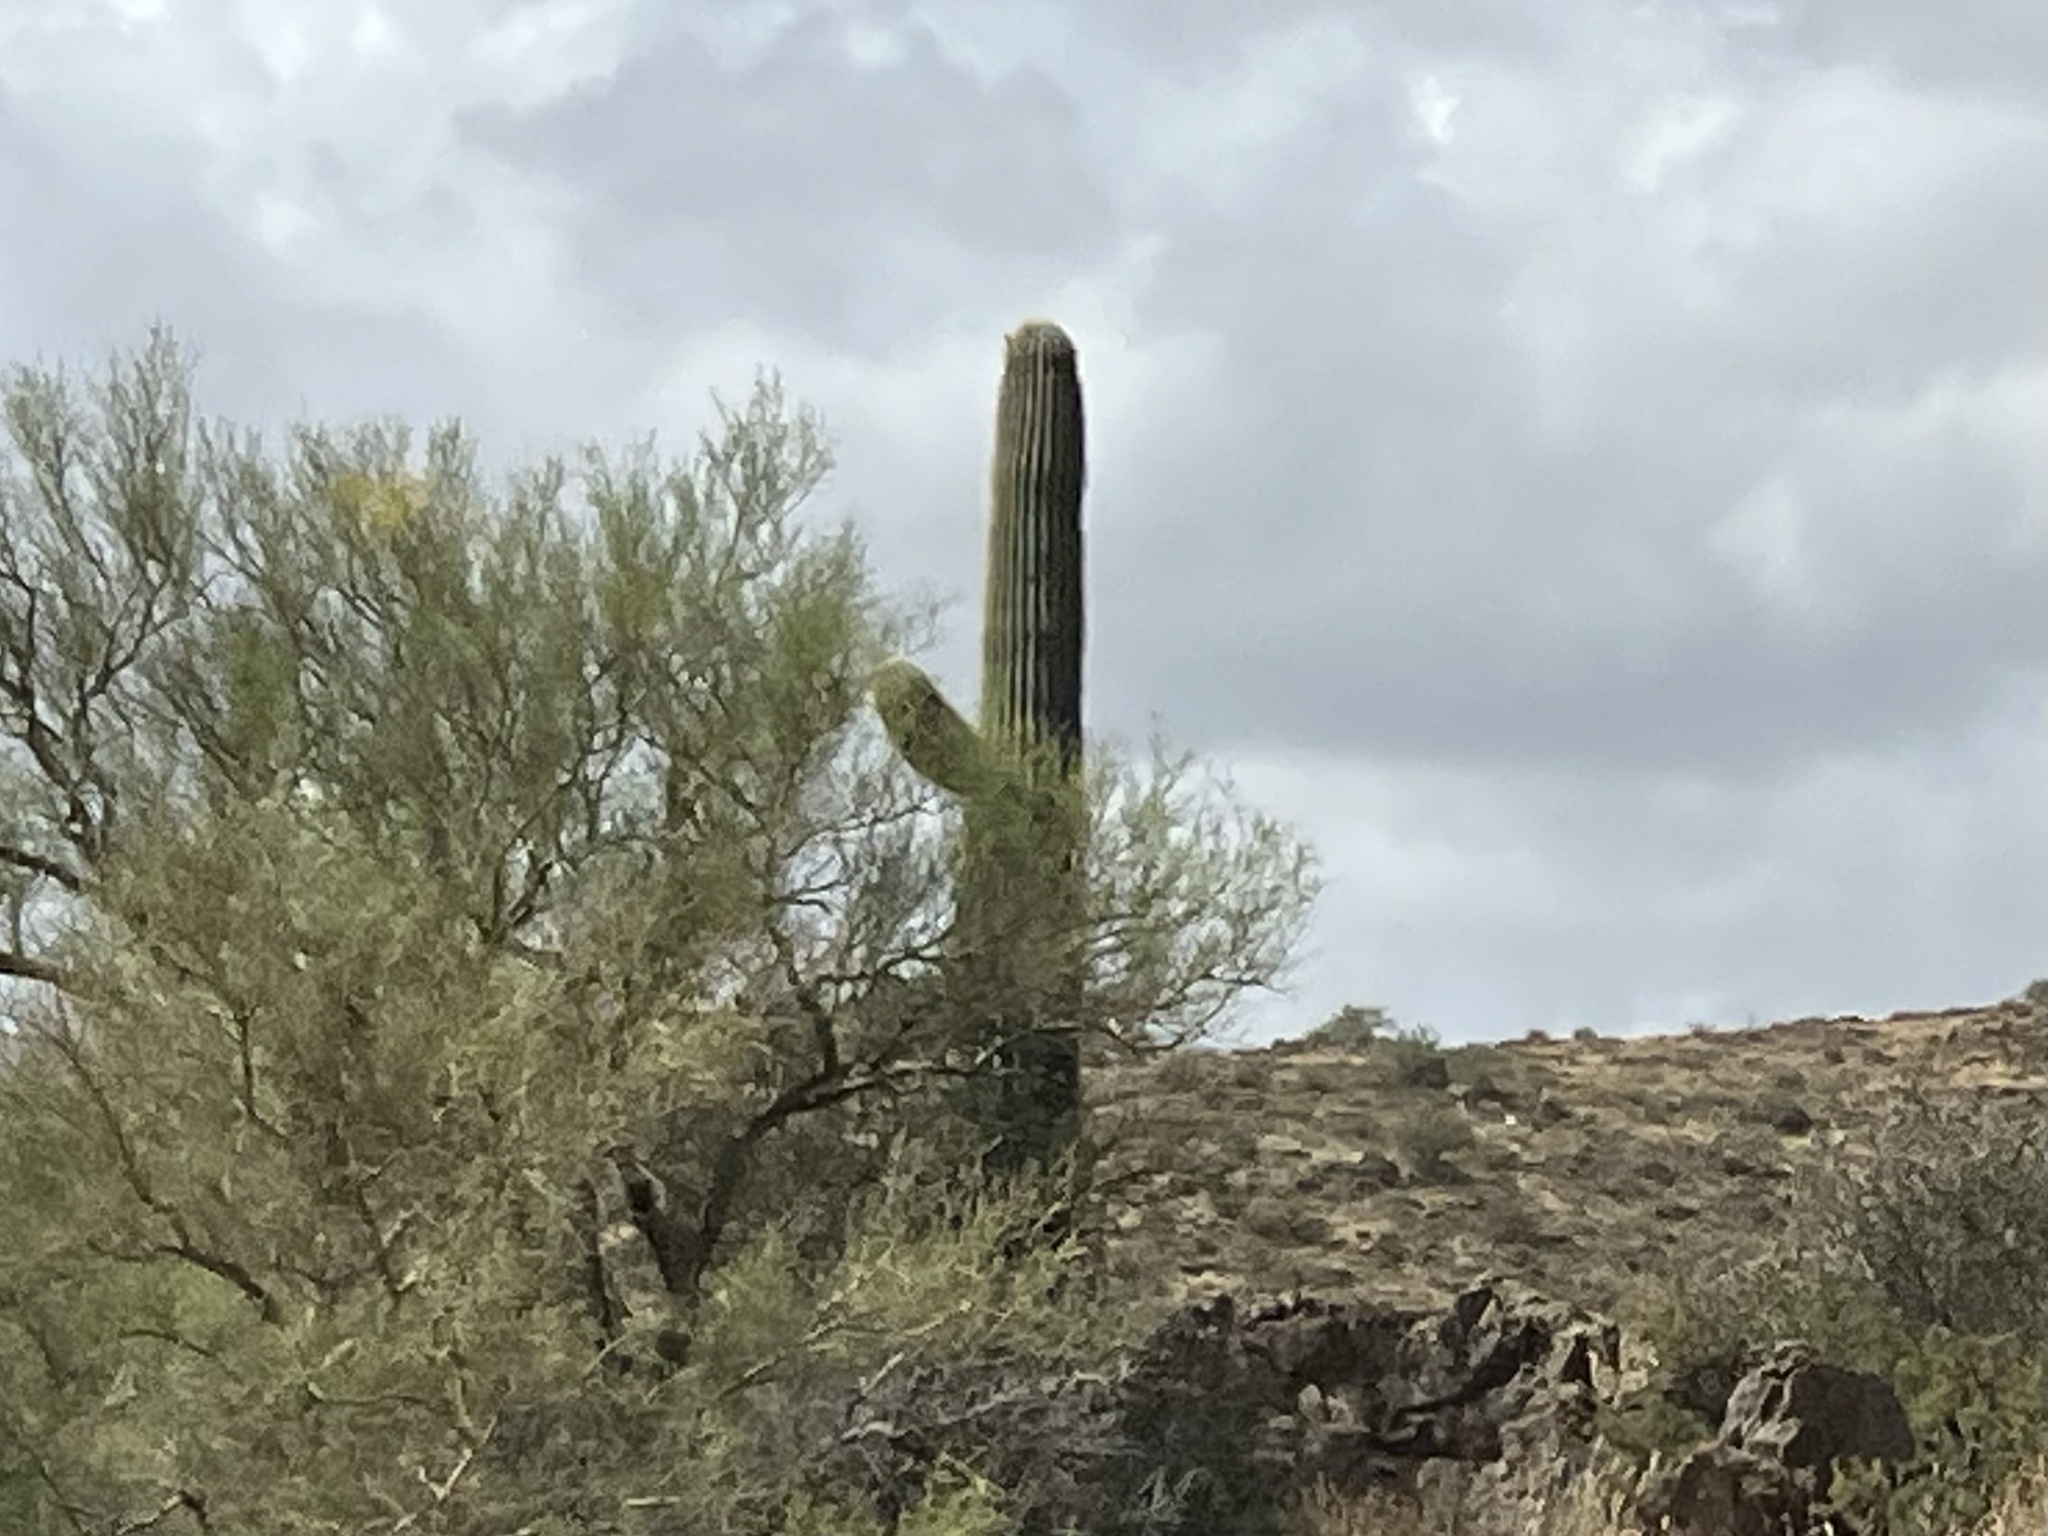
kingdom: Plantae
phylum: Tracheophyta
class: Magnoliopsida
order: Caryophyllales
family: Cactaceae
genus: Carnegiea
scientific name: Carnegiea gigantea
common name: Saguaro
